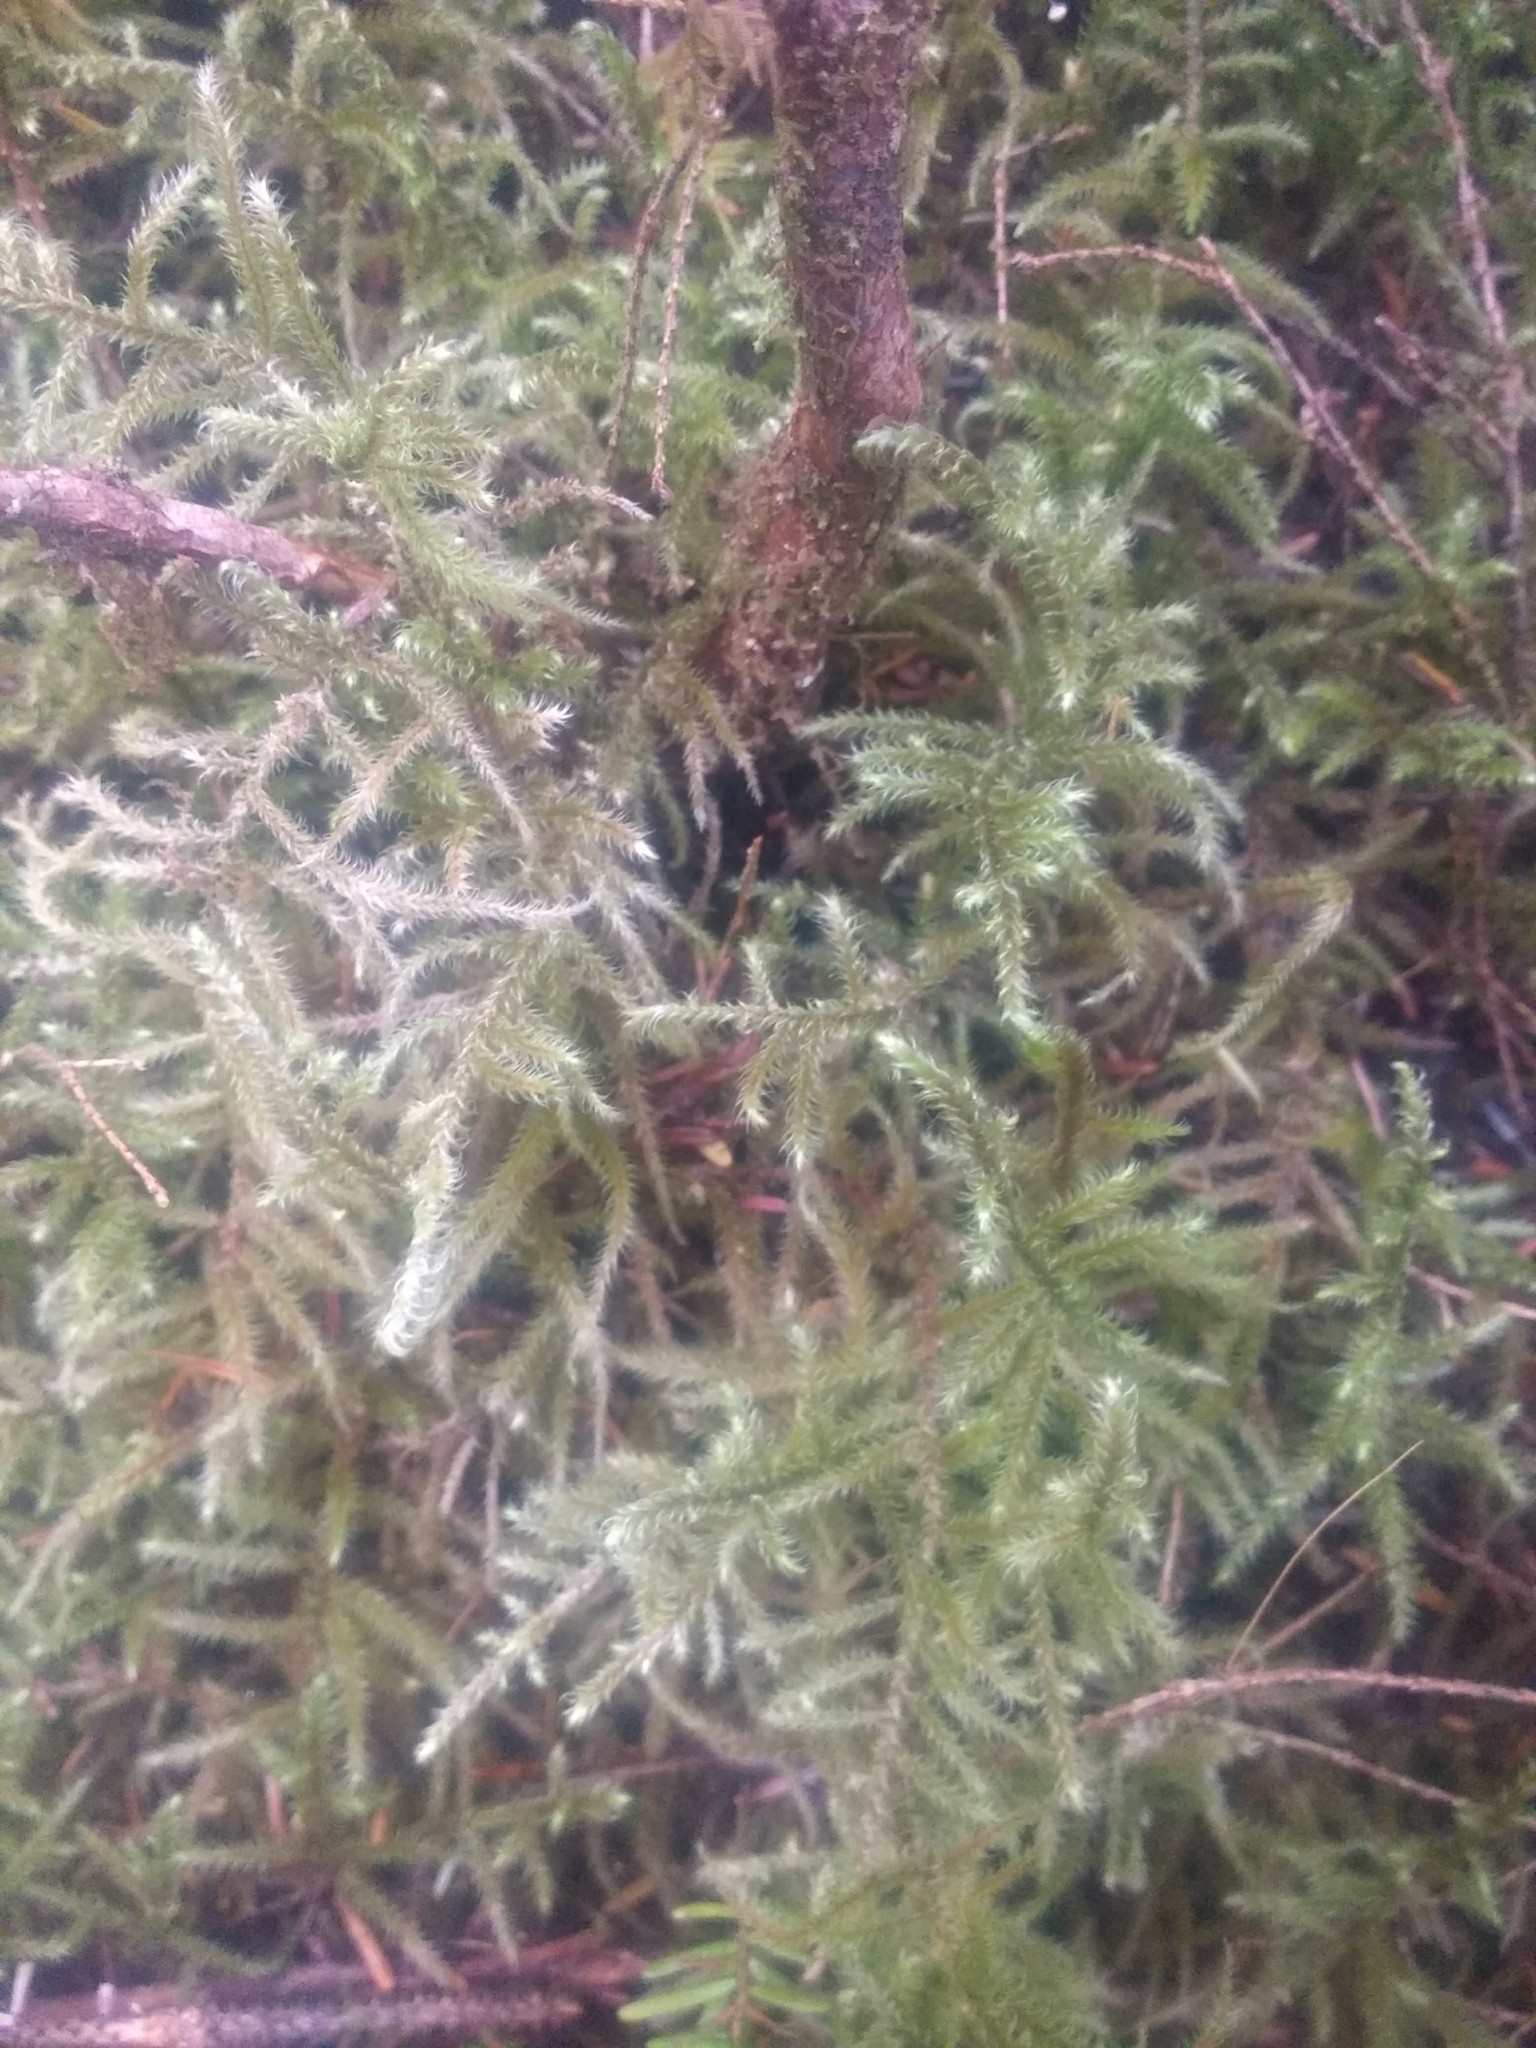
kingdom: Plantae
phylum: Bryophyta
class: Bryopsida
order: Hypnales
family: Hylocomiaceae
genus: Rhytidiadelphus
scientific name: Rhytidiadelphus loreus
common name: Lanky moss
